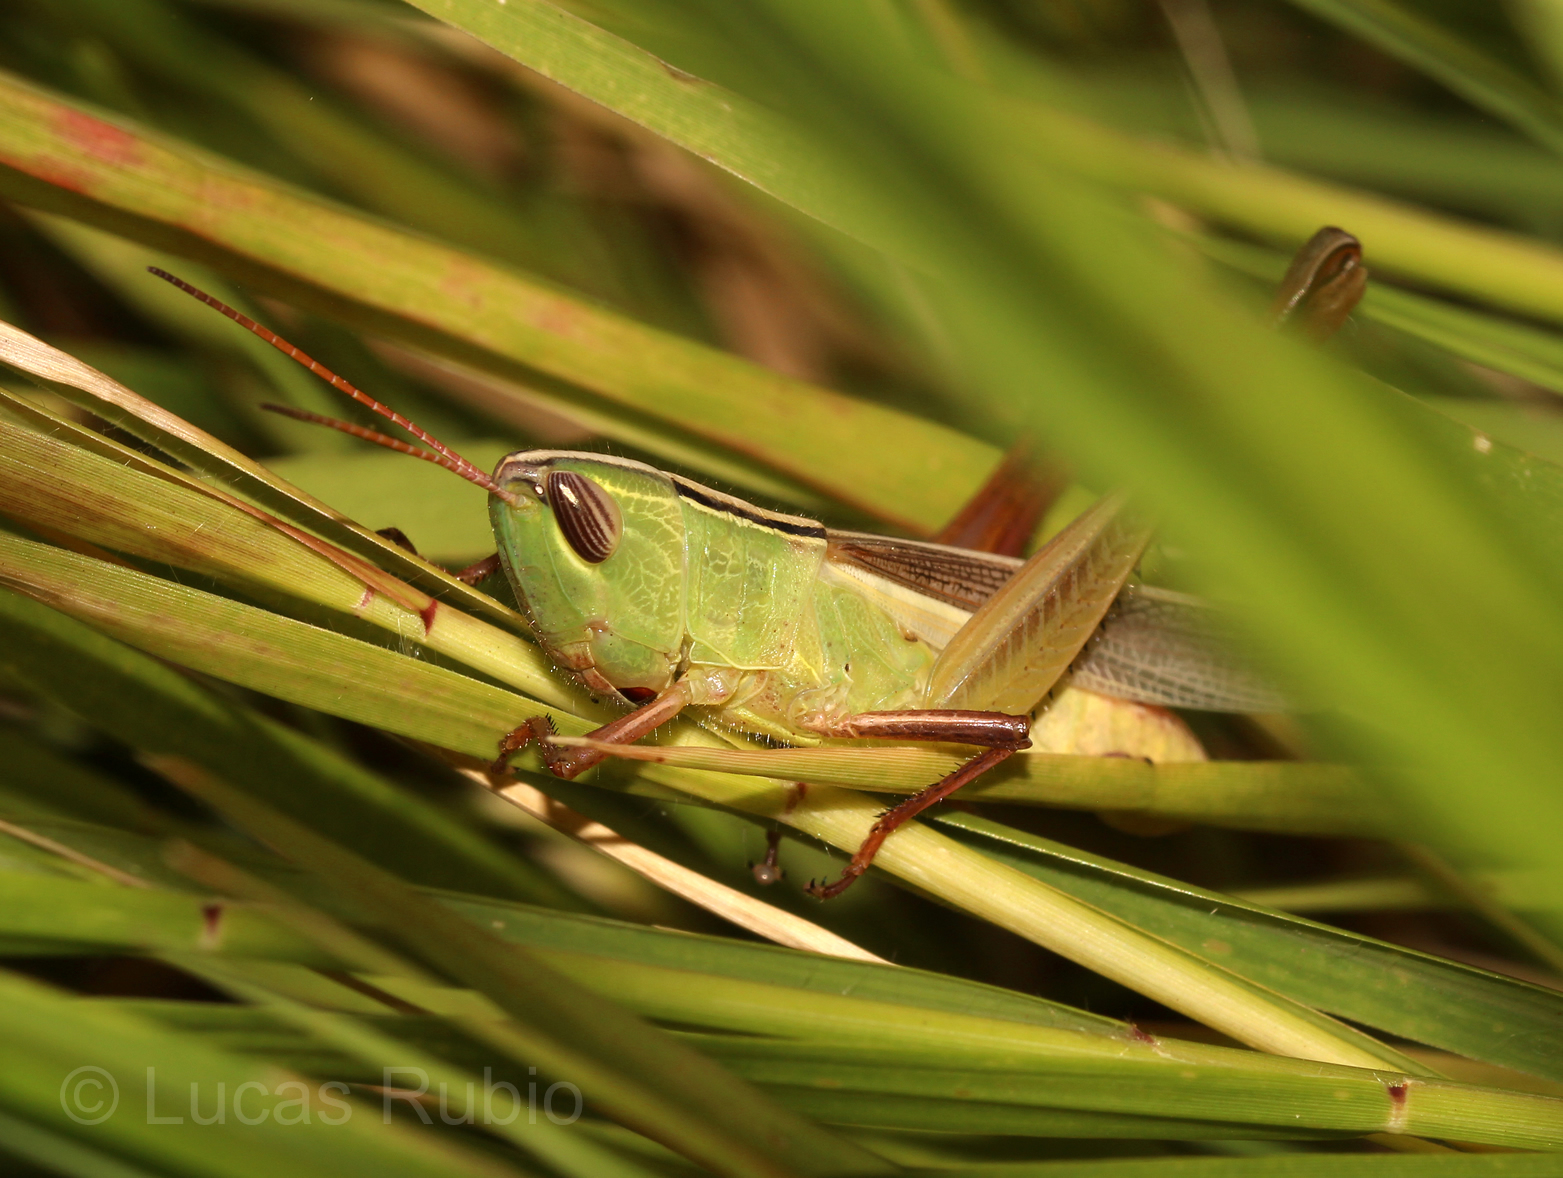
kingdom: Animalia
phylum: Arthropoda
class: Insecta
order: Orthoptera
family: Acrididae
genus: Staurorhectus
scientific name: Staurorhectus longicornis
